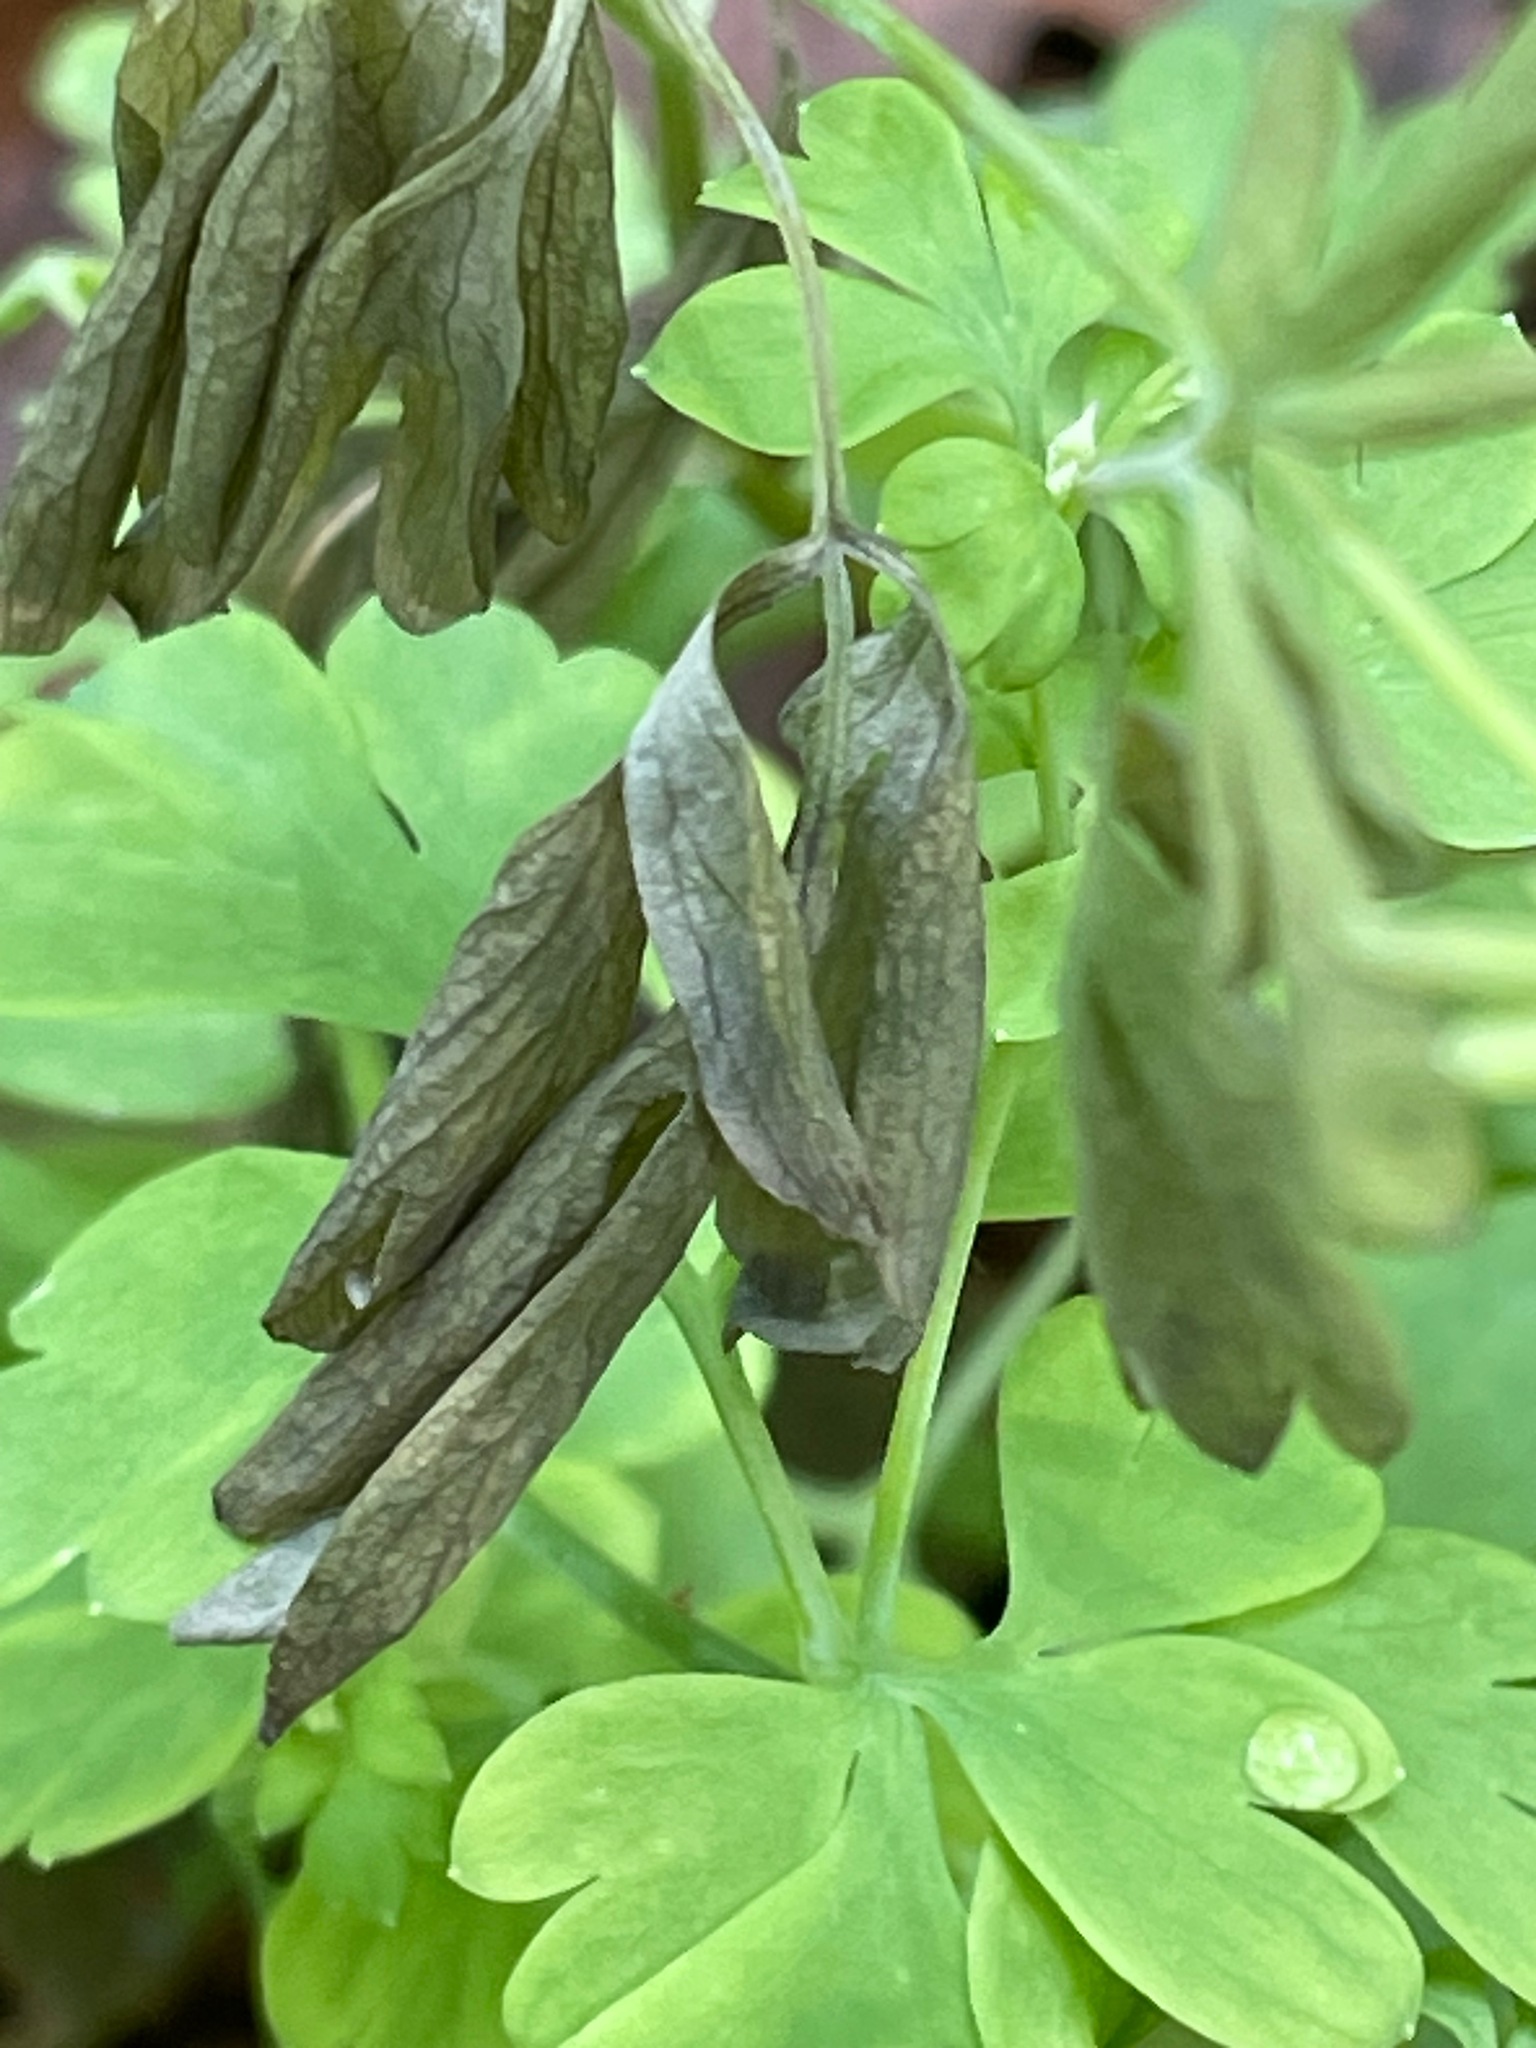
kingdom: Plantae
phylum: Tracheophyta
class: Magnoliopsida
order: Ranunculales
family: Papaveraceae
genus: Capnoides
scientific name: Capnoides sempervirens
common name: Rock harlequin
